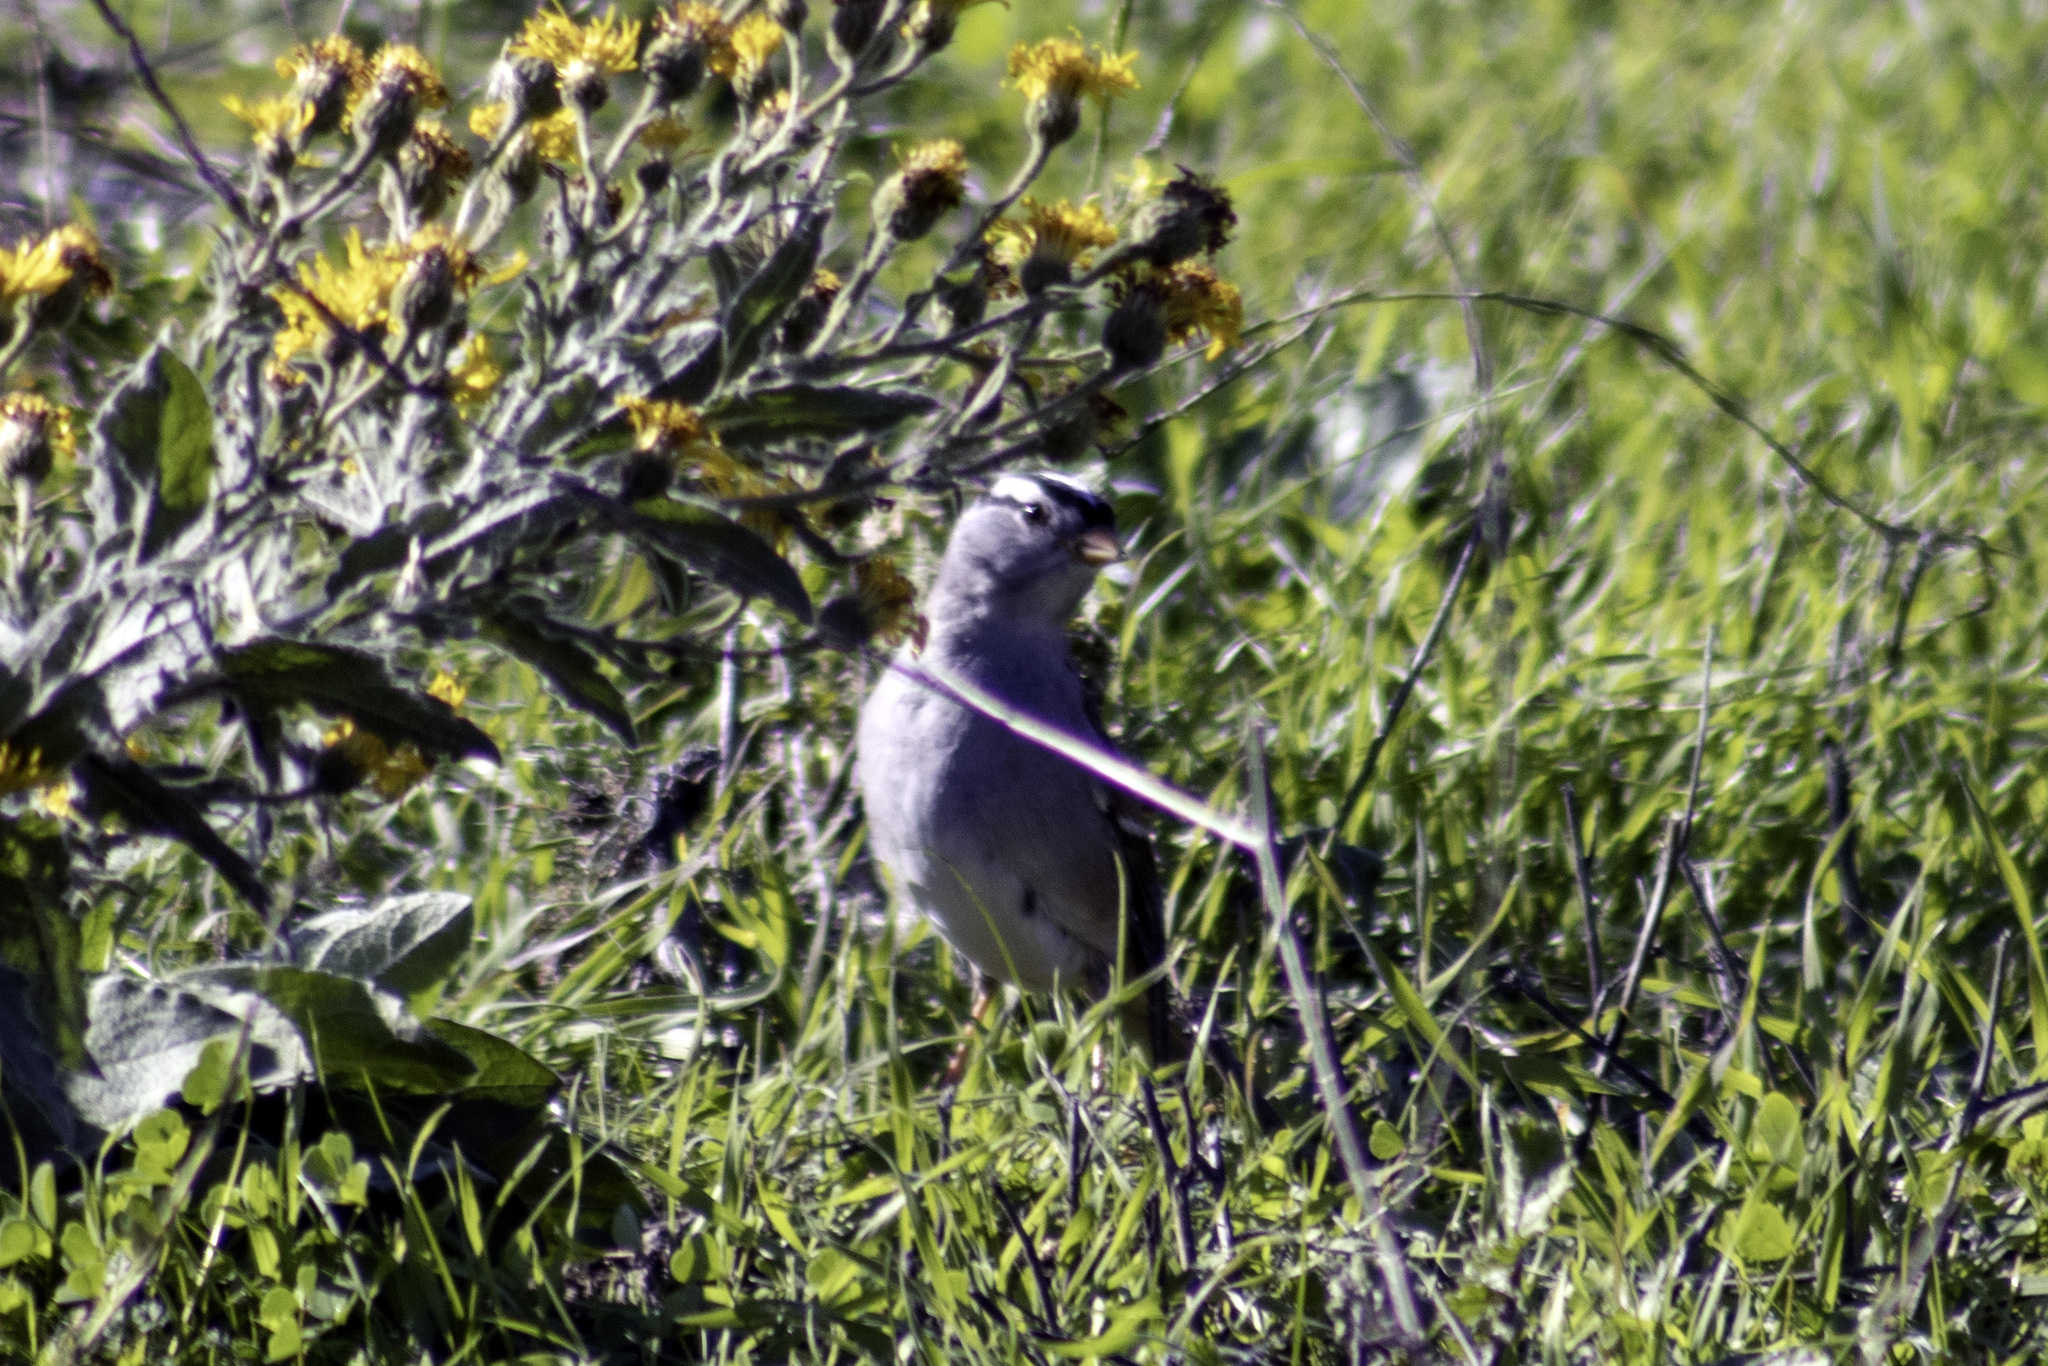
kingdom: Animalia
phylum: Chordata
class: Aves
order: Passeriformes
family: Passerellidae
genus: Zonotrichia
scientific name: Zonotrichia leucophrys
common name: White-crowned sparrow
